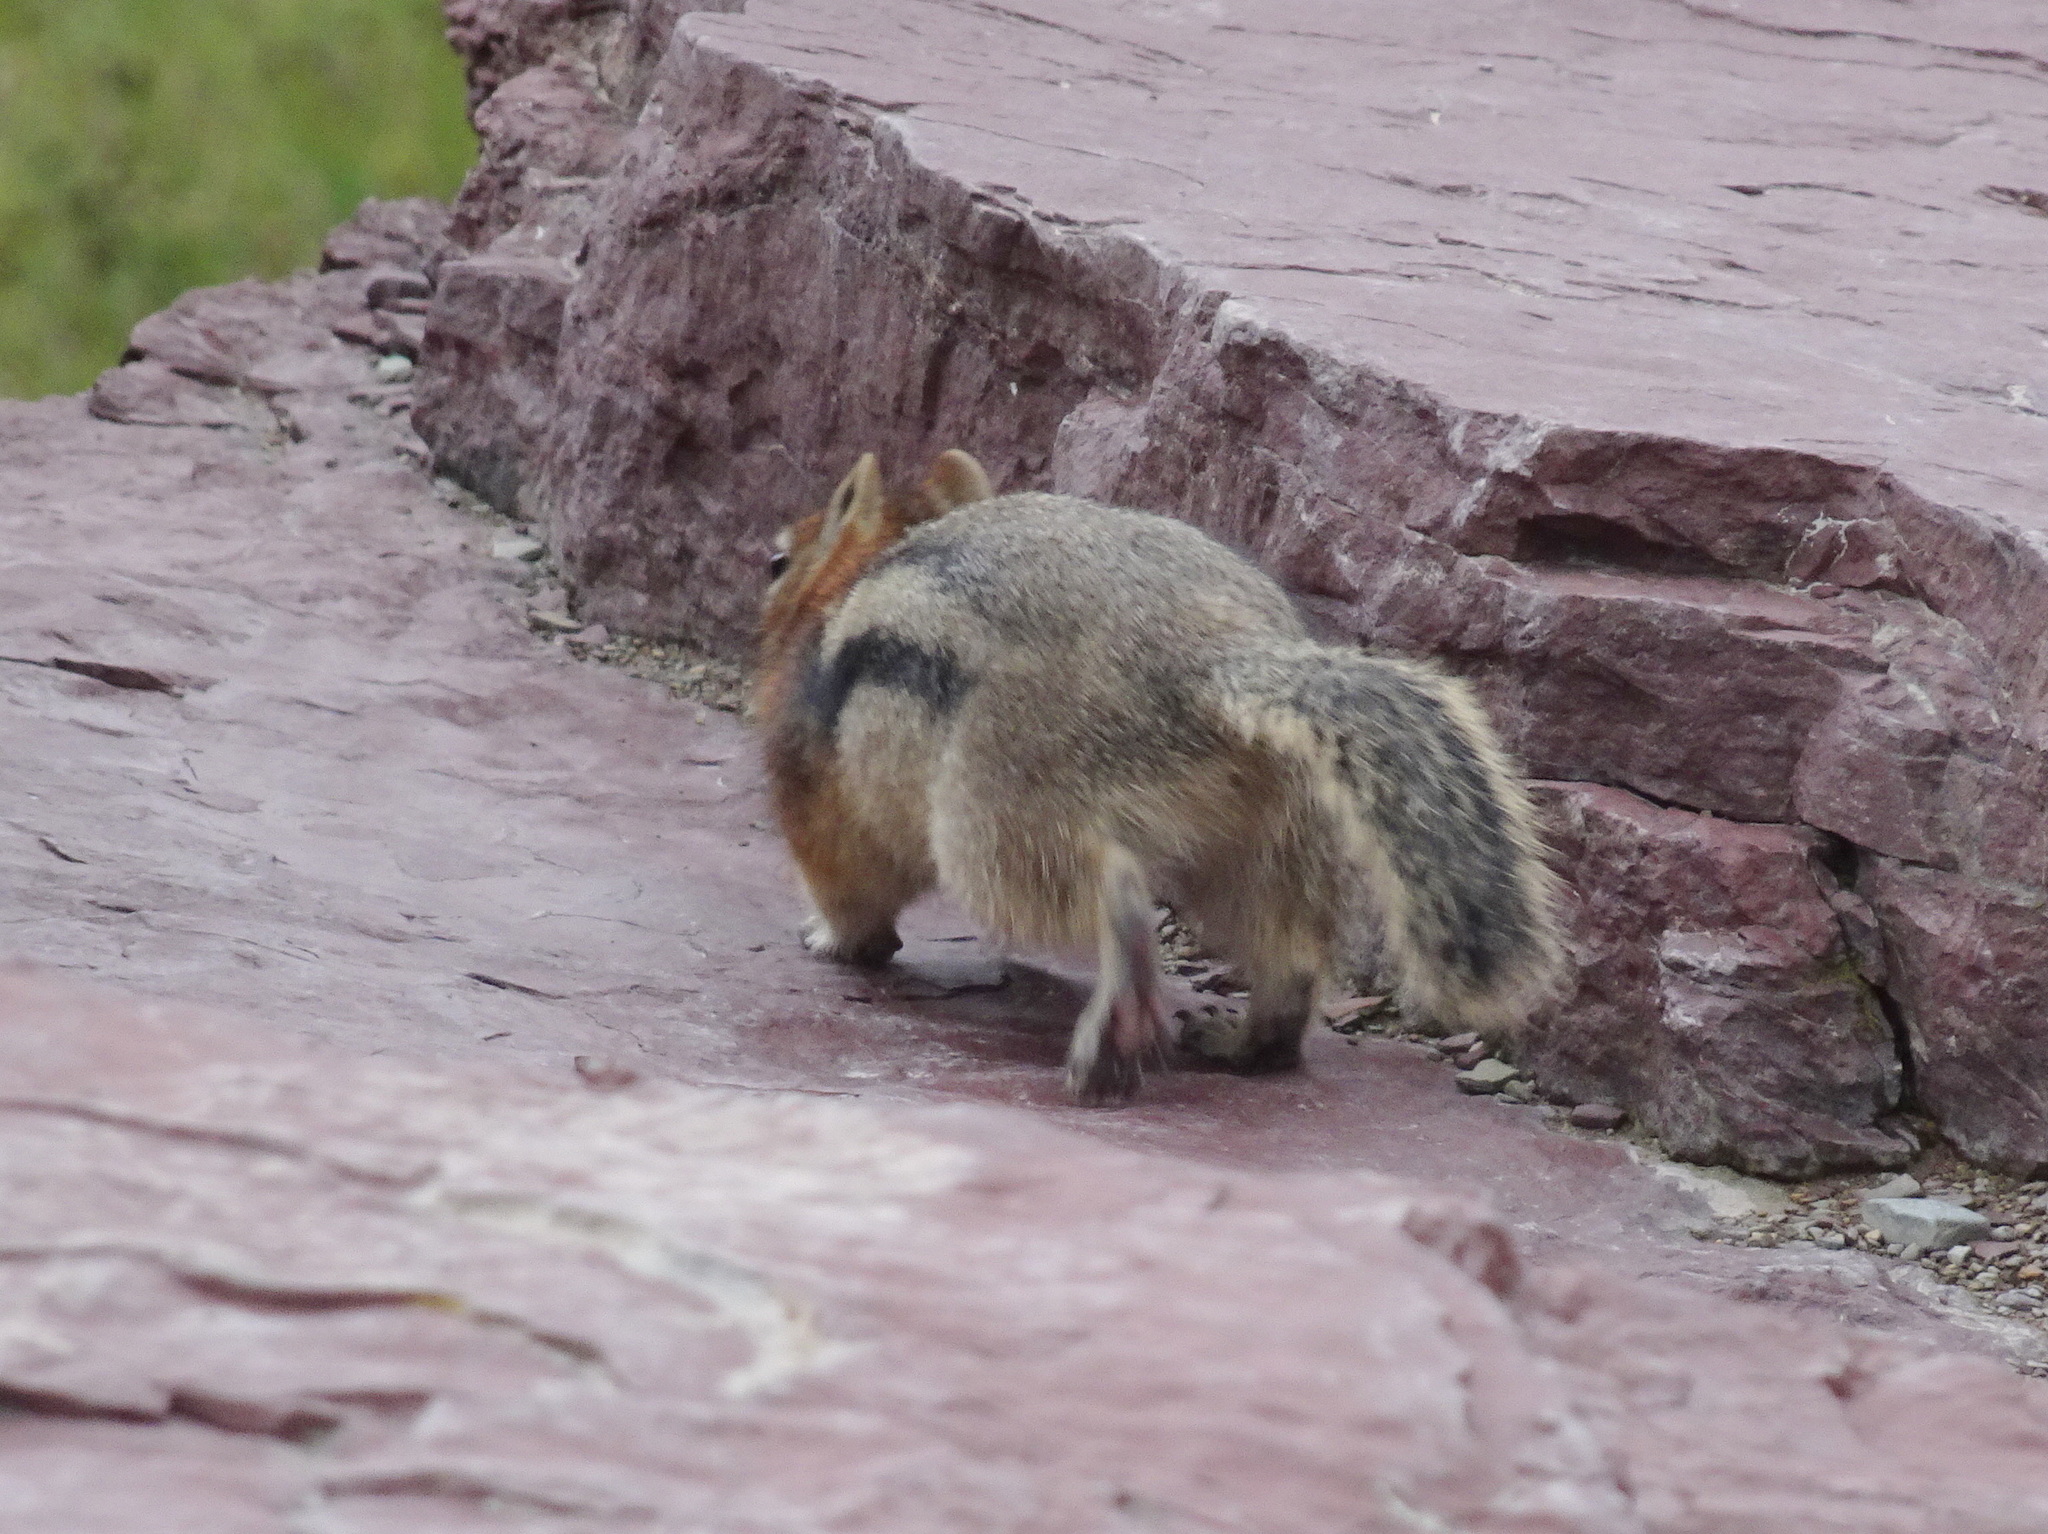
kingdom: Animalia
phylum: Chordata
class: Mammalia
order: Rodentia
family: Sciuridae
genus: Callospermophilus
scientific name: Callospermophilus lateralis
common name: Golden-mantled ground squirrel
